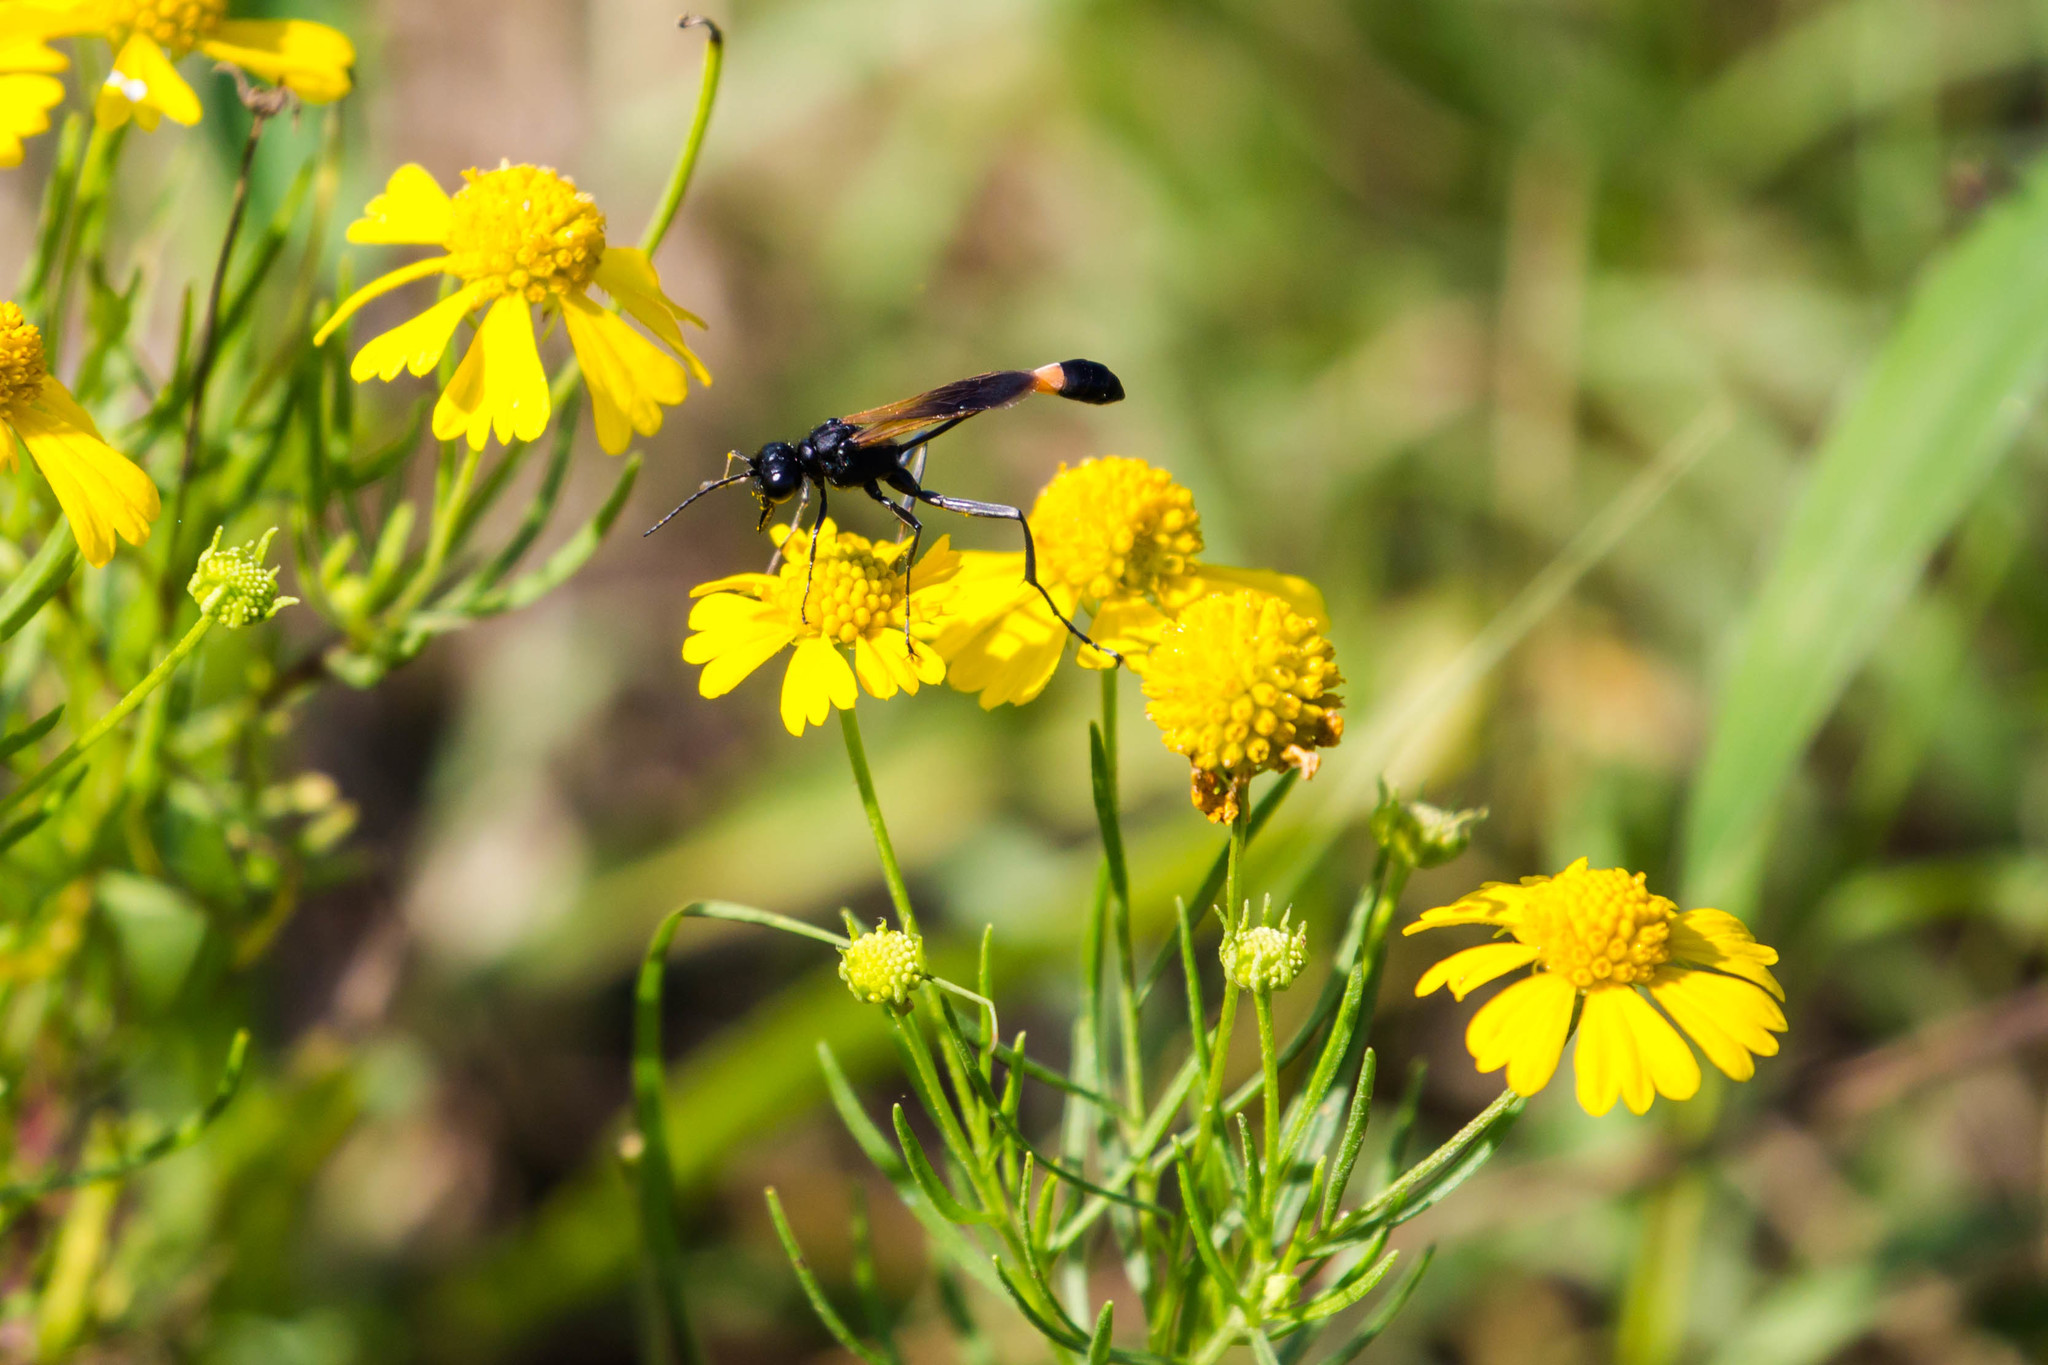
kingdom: Animalia
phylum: Arthropoda
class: Insecta
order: Hymenoptera
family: Sphecidae
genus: Ammophila
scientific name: Ammophila pictipennis
